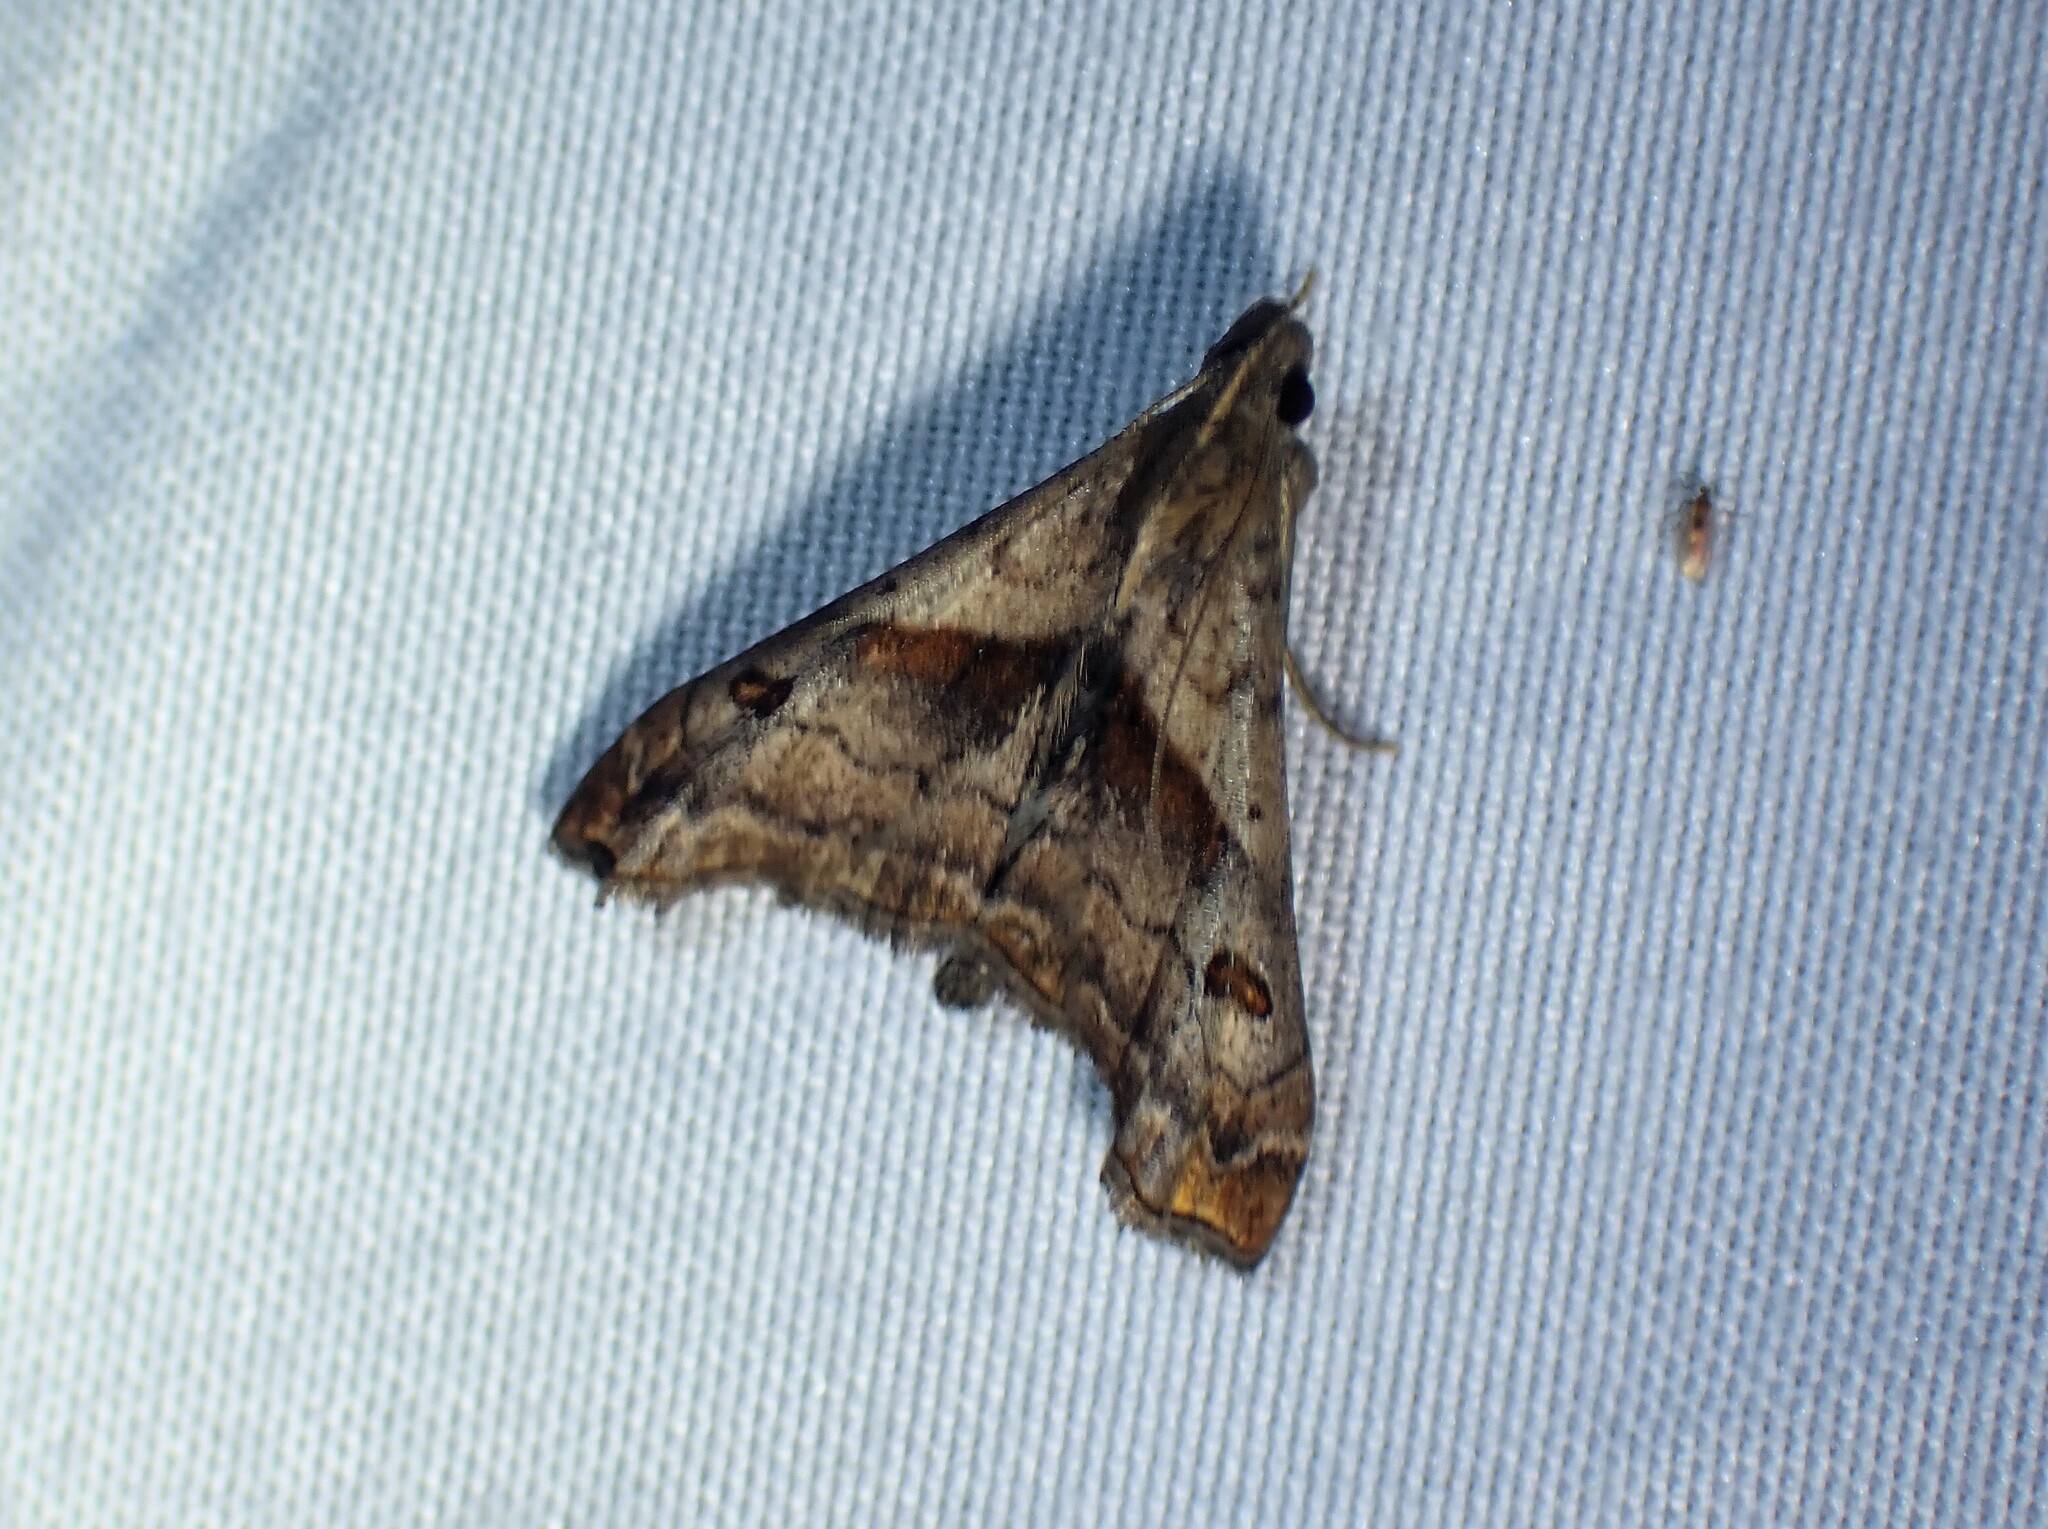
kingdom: Animalia
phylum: Arthropoda
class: Insecta
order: Lepidoptera
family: Erebidae
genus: Palthis
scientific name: Palthis angulalis
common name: Dark-spotted palthis moth
